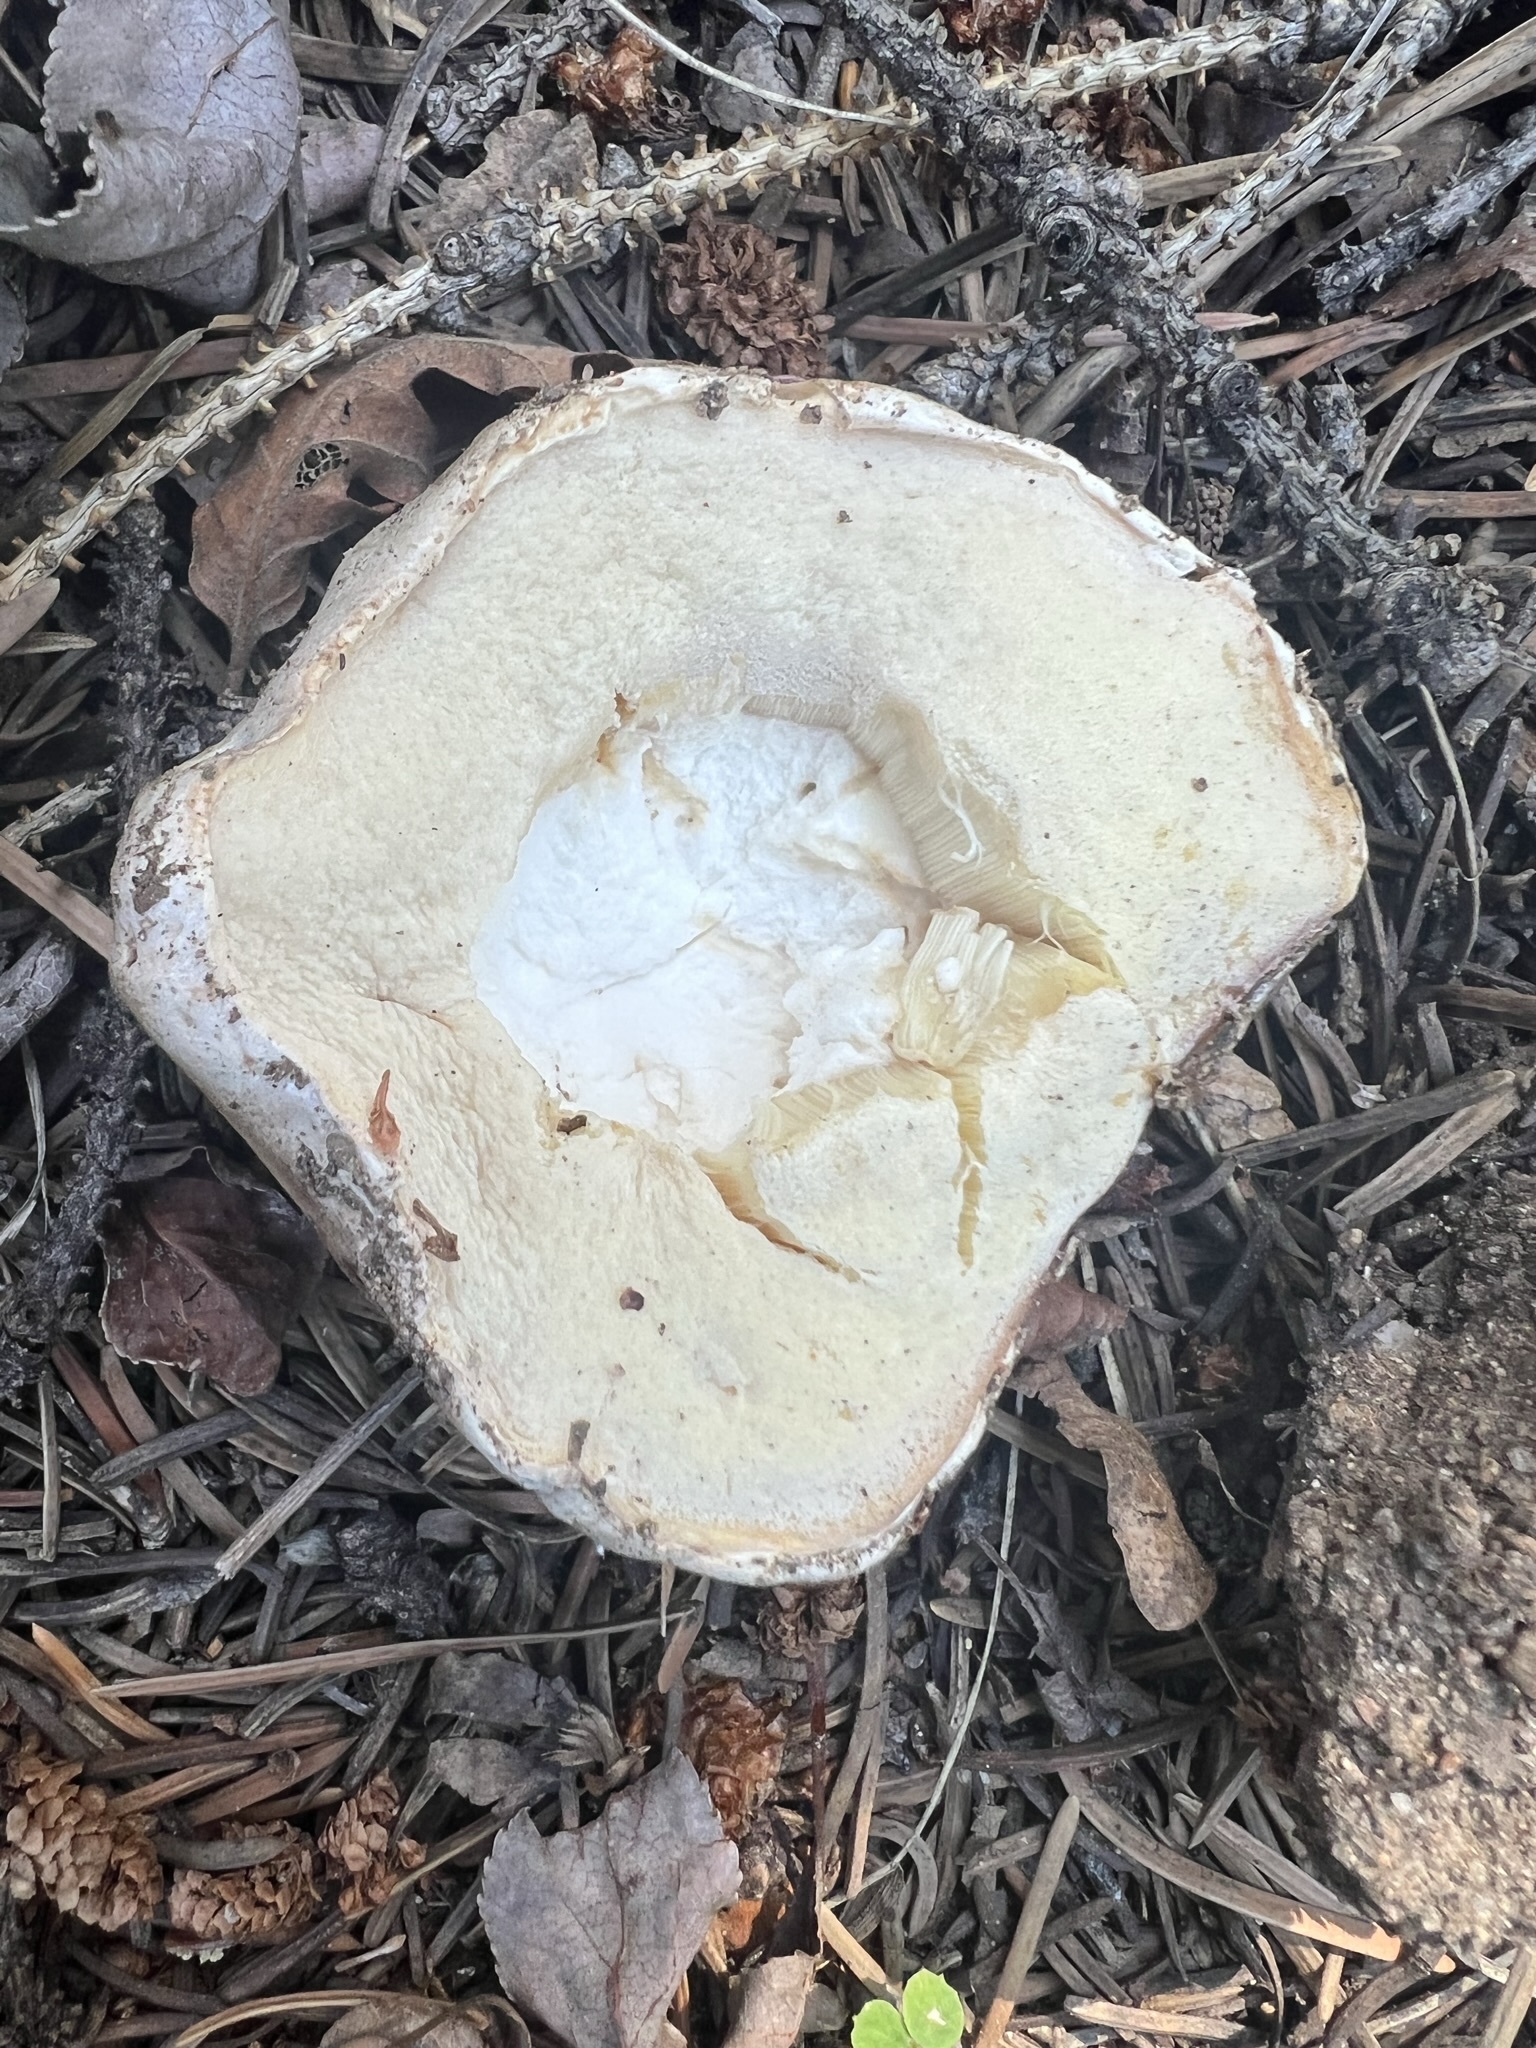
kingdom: Fungi
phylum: Basidiomycota
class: Agaricomycetes
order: Boletales
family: Boletaceae
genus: Boletus
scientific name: Boletus barrowsii
